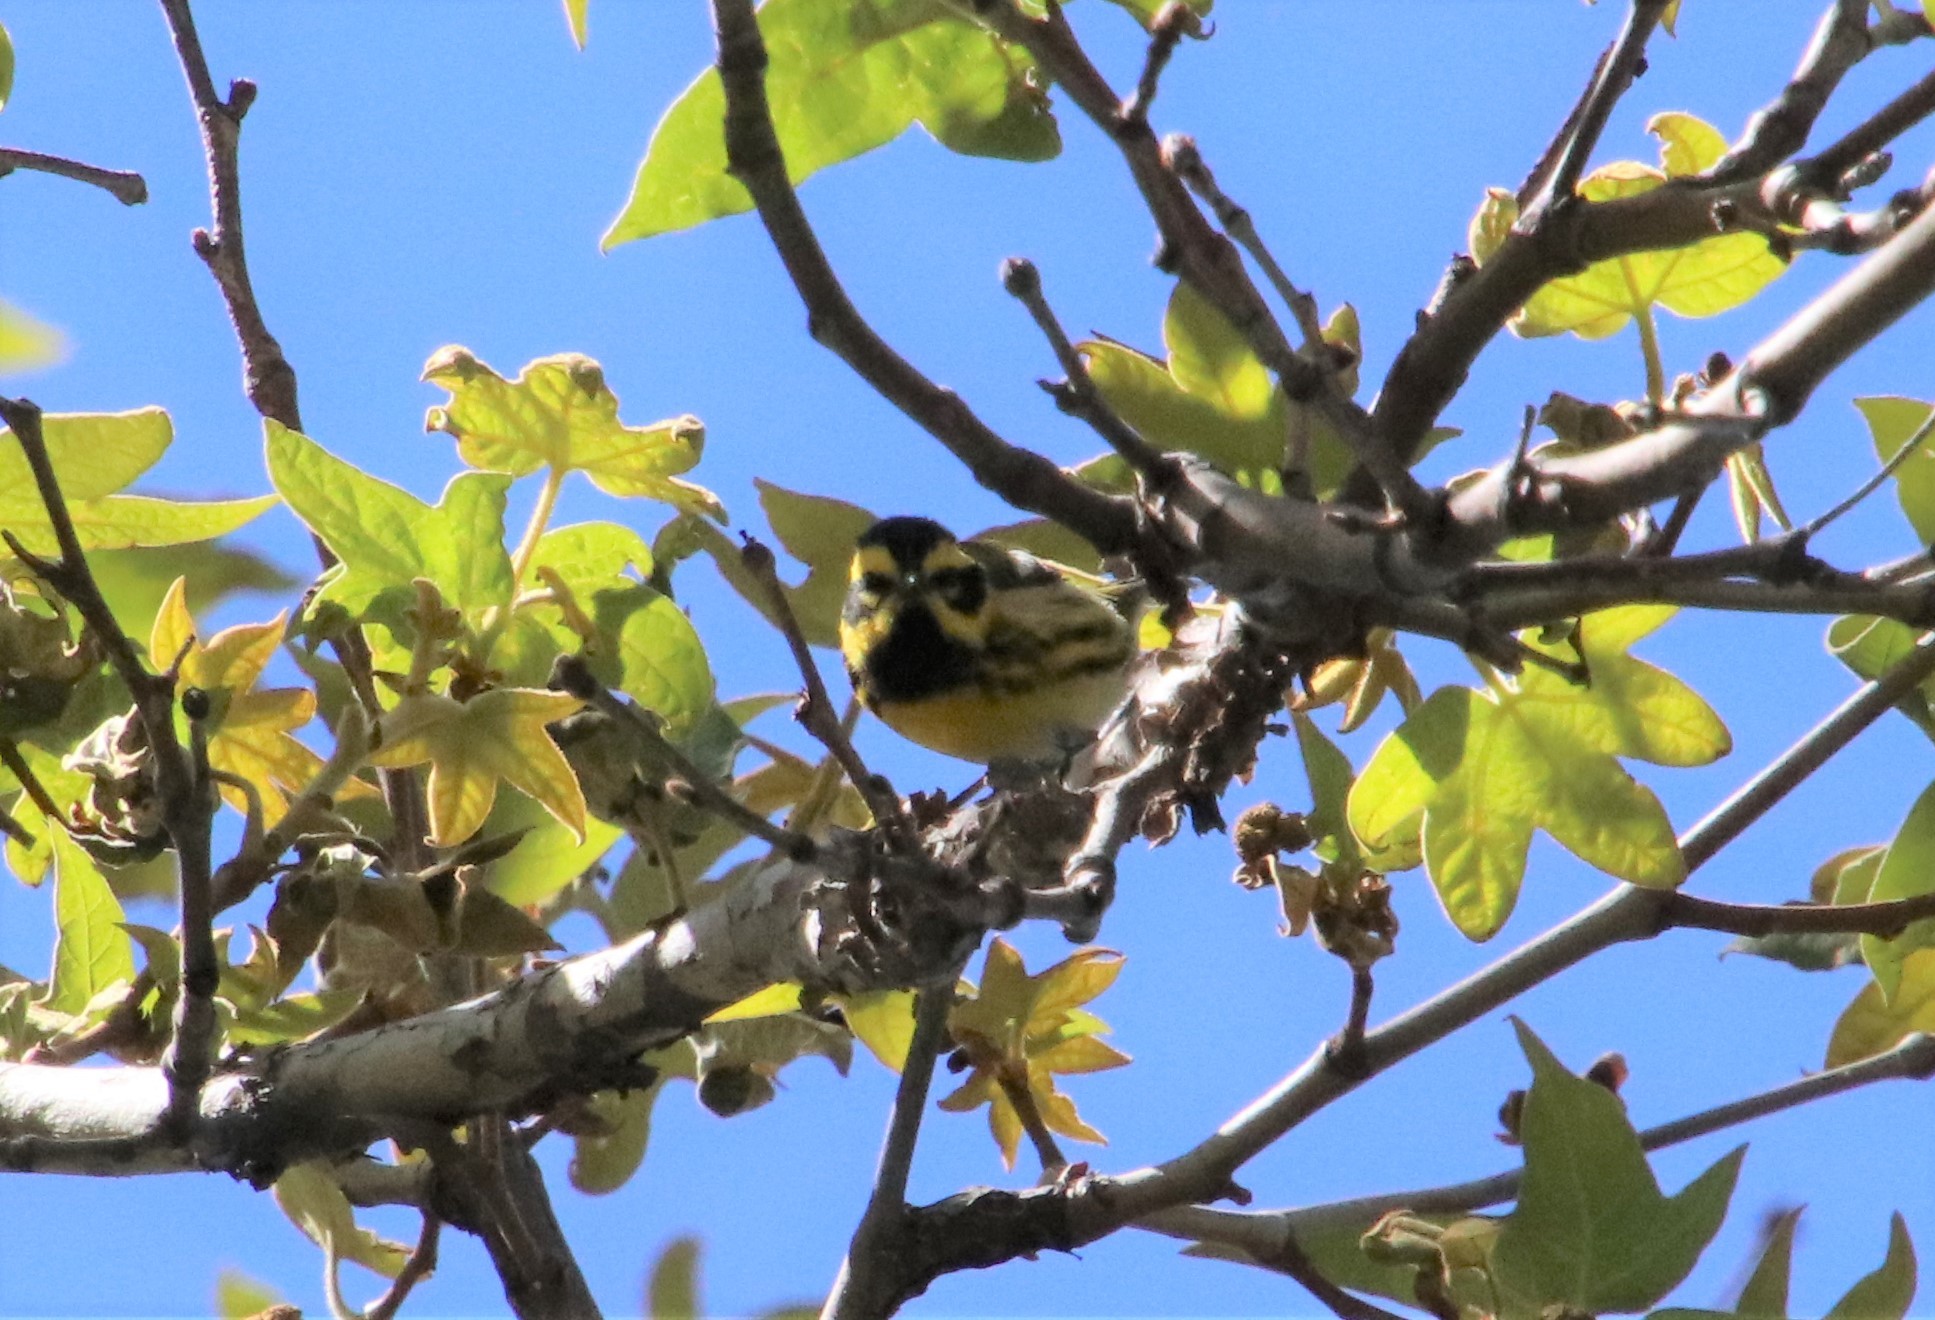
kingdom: Animalia
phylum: Chordata
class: Aves
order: Passeriformes
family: Parulidae
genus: Setophaga
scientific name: Setophaga townsendi
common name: Townsend's warbler
